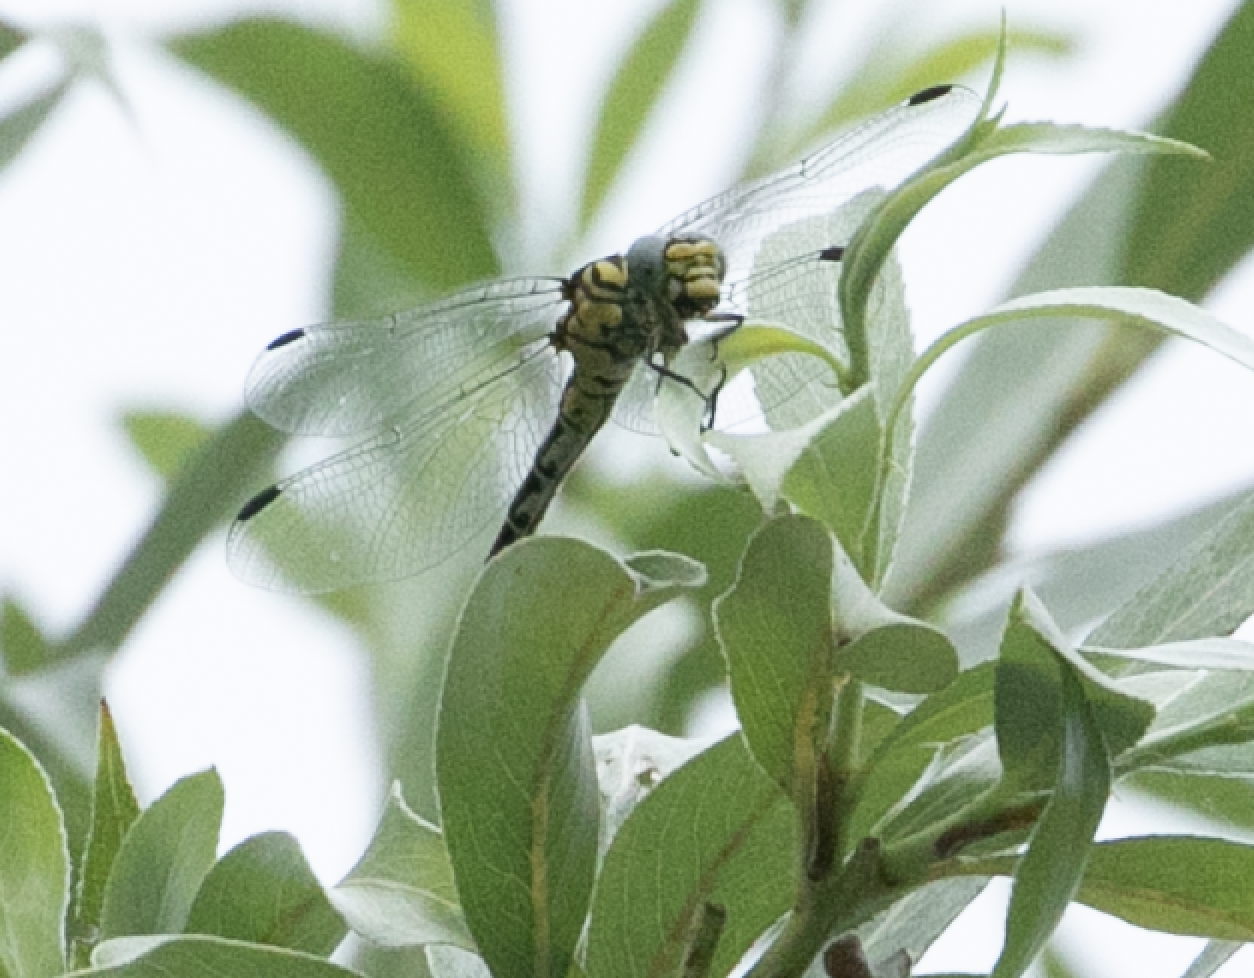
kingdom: Animalia
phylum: Arthropoda
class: Insecta
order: Odonata
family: Gomphidae
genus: Onychogomphus
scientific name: Onychogomphus forcipatus
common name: Small pincertail
